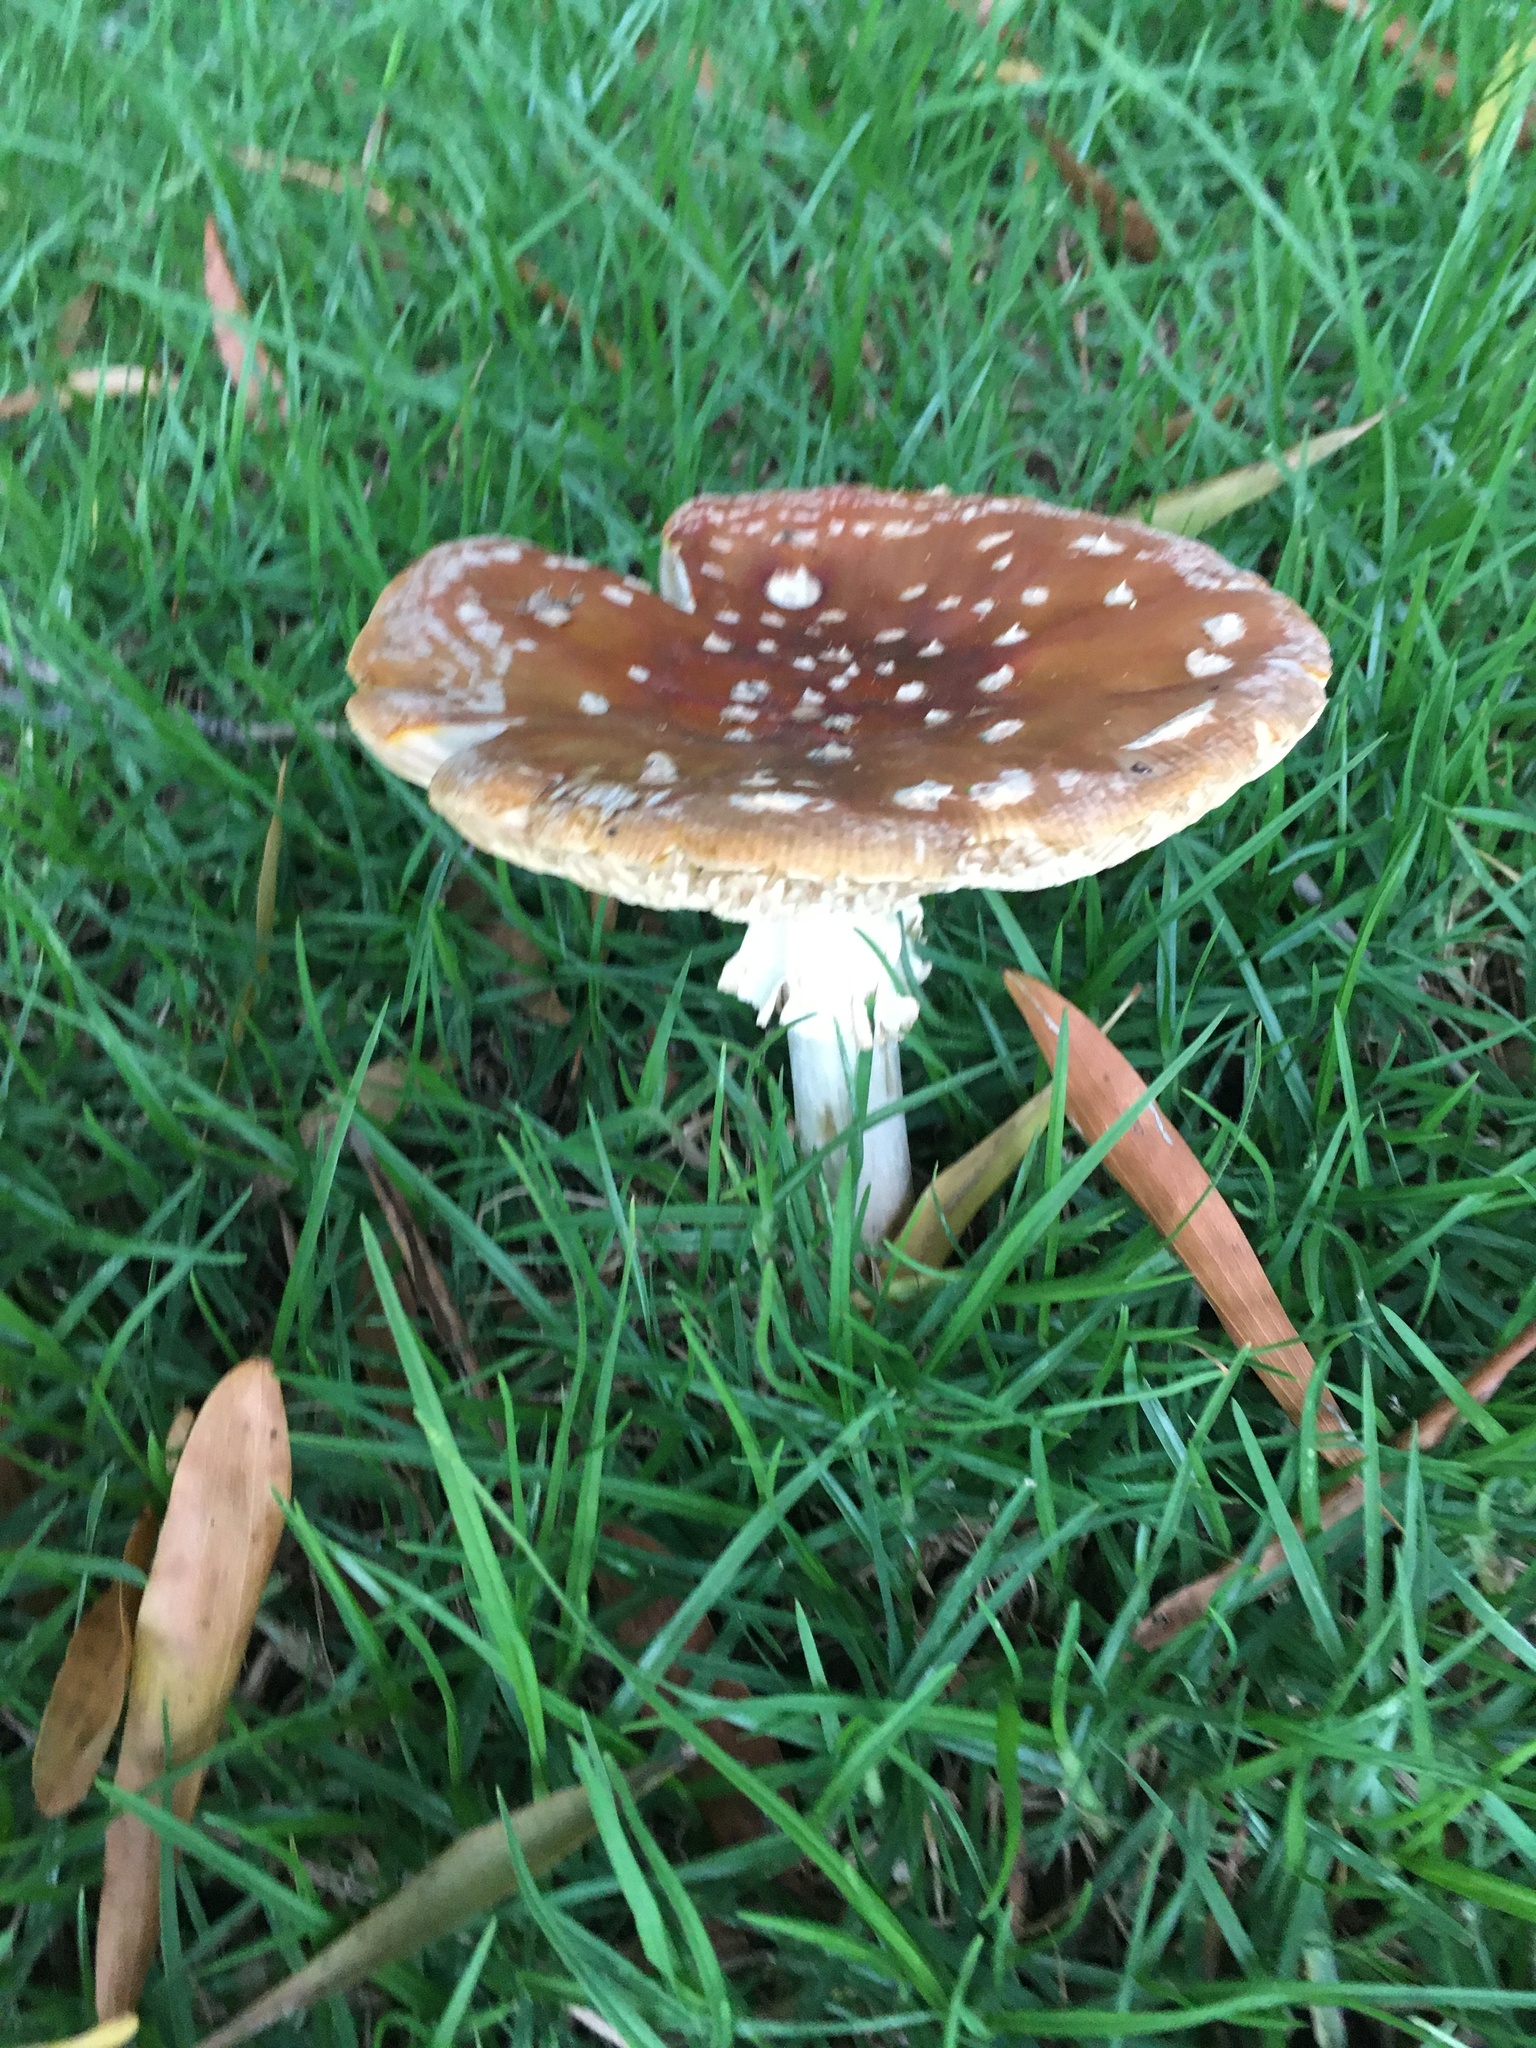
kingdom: Fungi
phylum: Basidiomycota
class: Agaricomycetes
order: Agaricales
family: Amanitaceae
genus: Amanita
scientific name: Amanita muscaria
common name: Fly agaric
